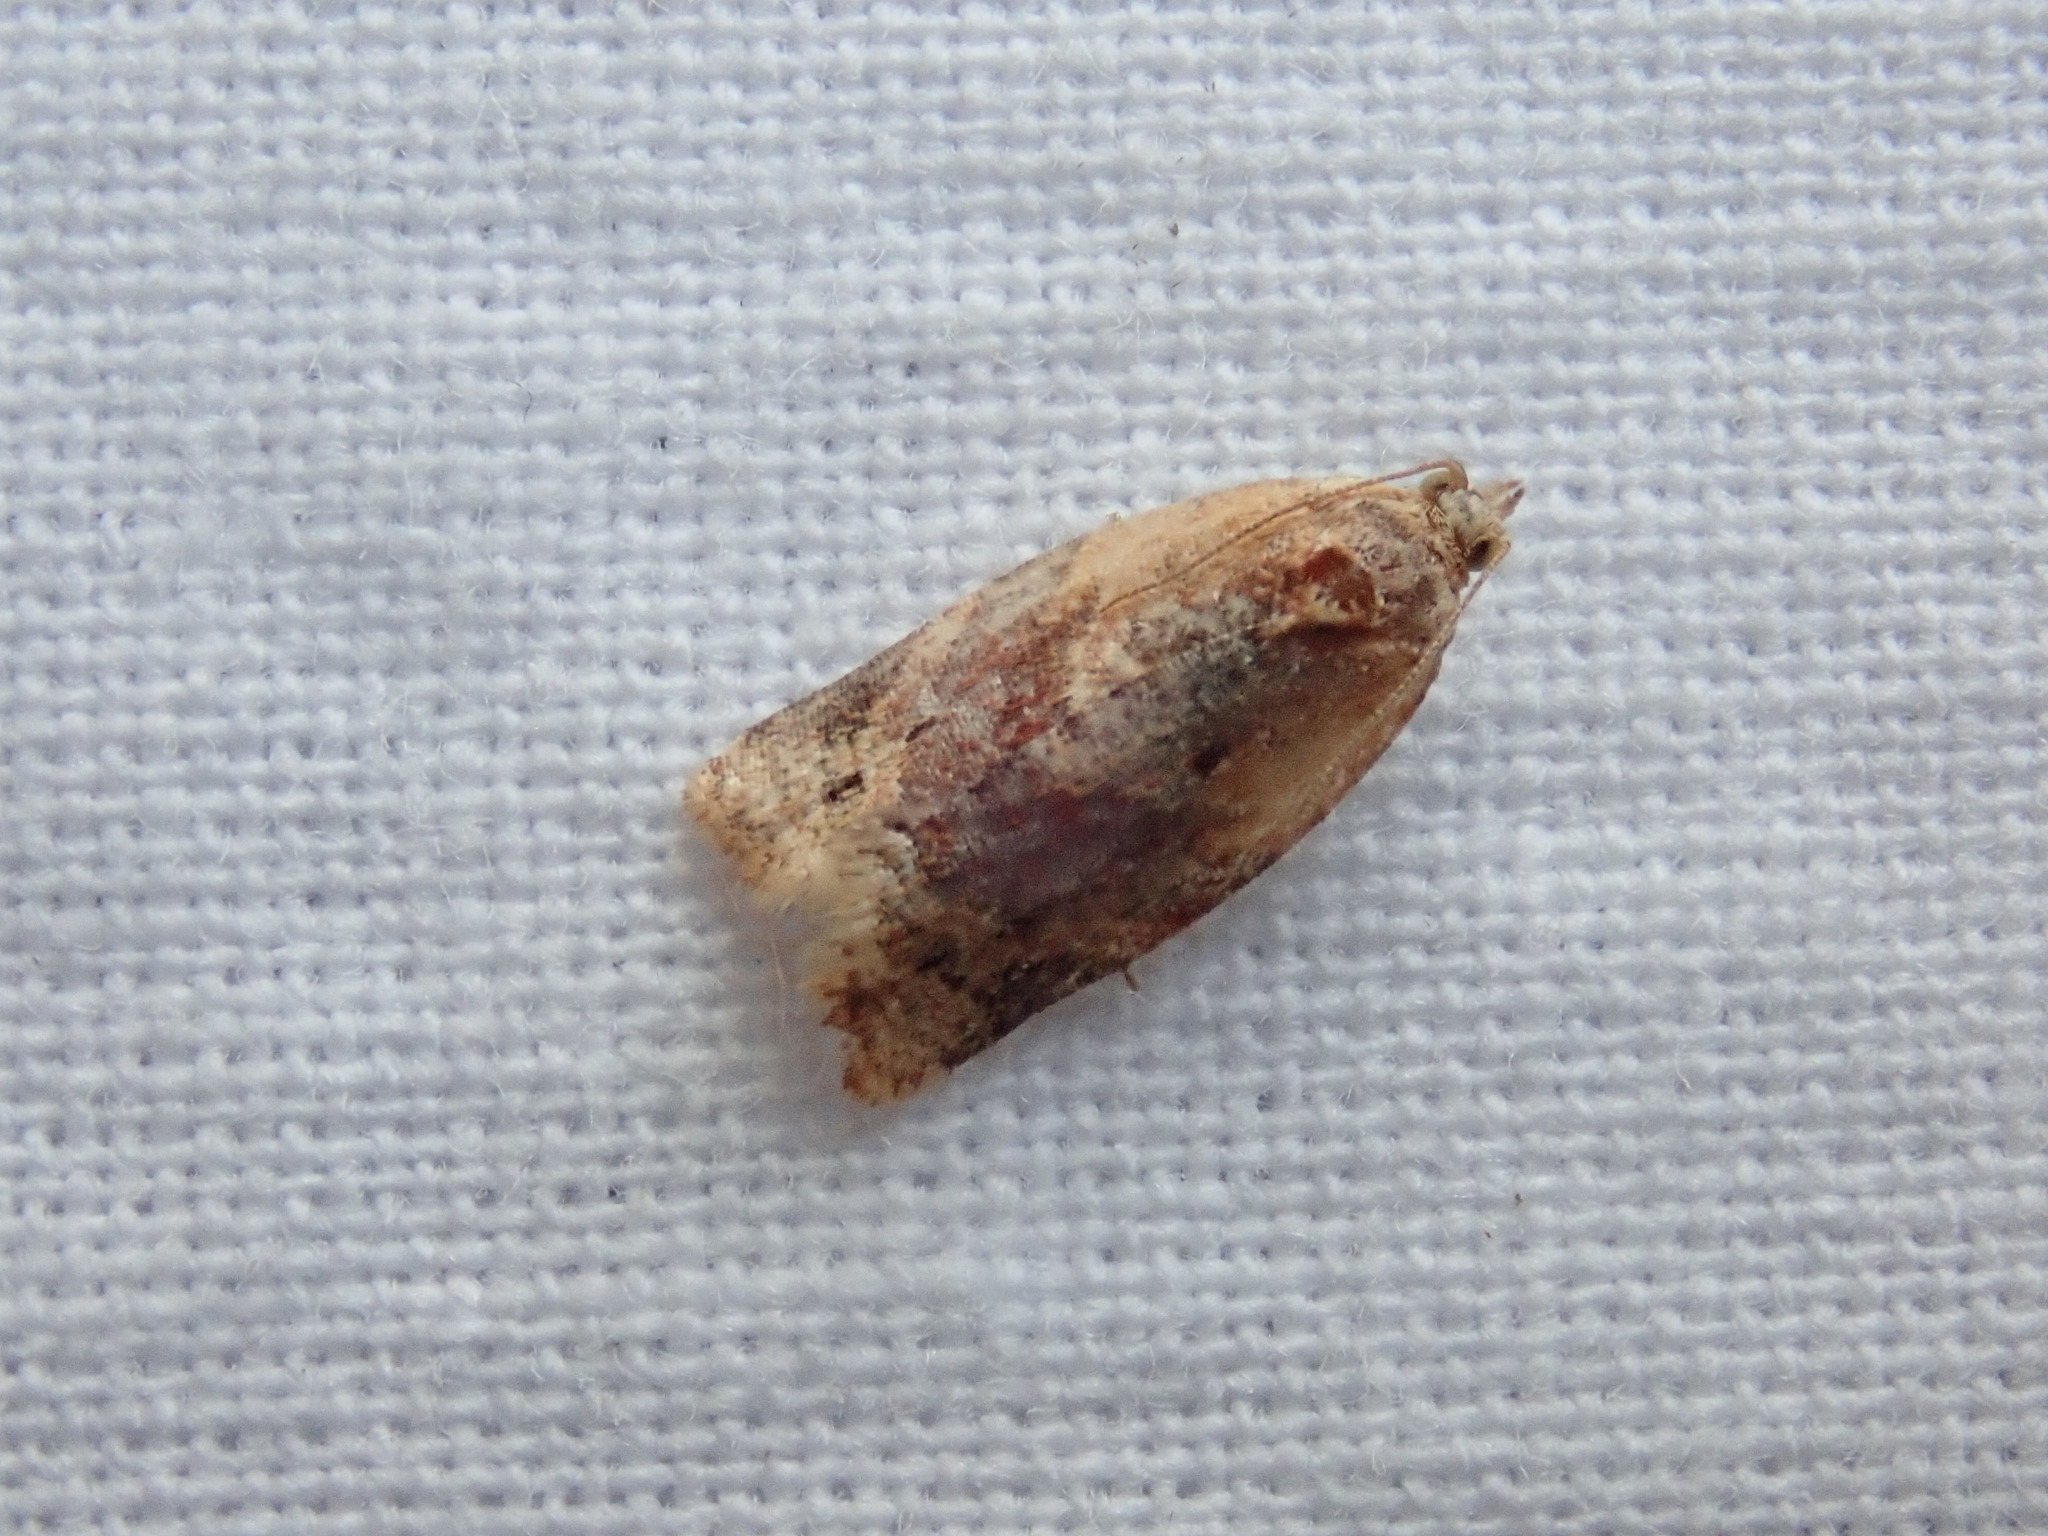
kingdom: Animalia
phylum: Arthropoda
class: Insecta
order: Lepidoptera
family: Tortricidae
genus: Argyrotaenia
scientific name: Argyrotaenia velutinana
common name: Red-banded leafroller moth
